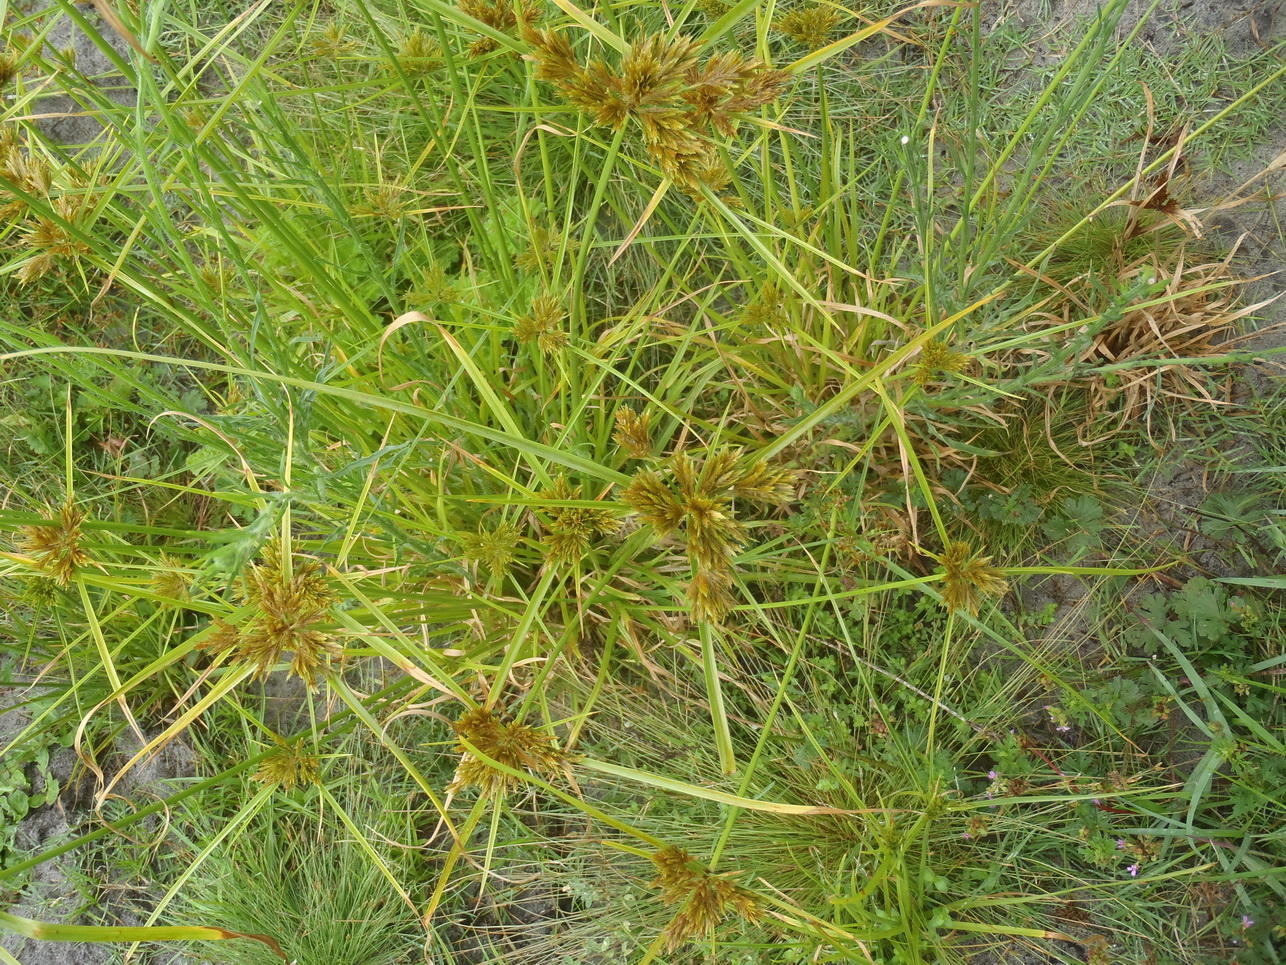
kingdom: Plantae
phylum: Tracheophyta
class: Liliopsida
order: Poales
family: Cyperaceae
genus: Cyperus
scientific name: Cyperus polystachyos
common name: Bunchy flat sedge
